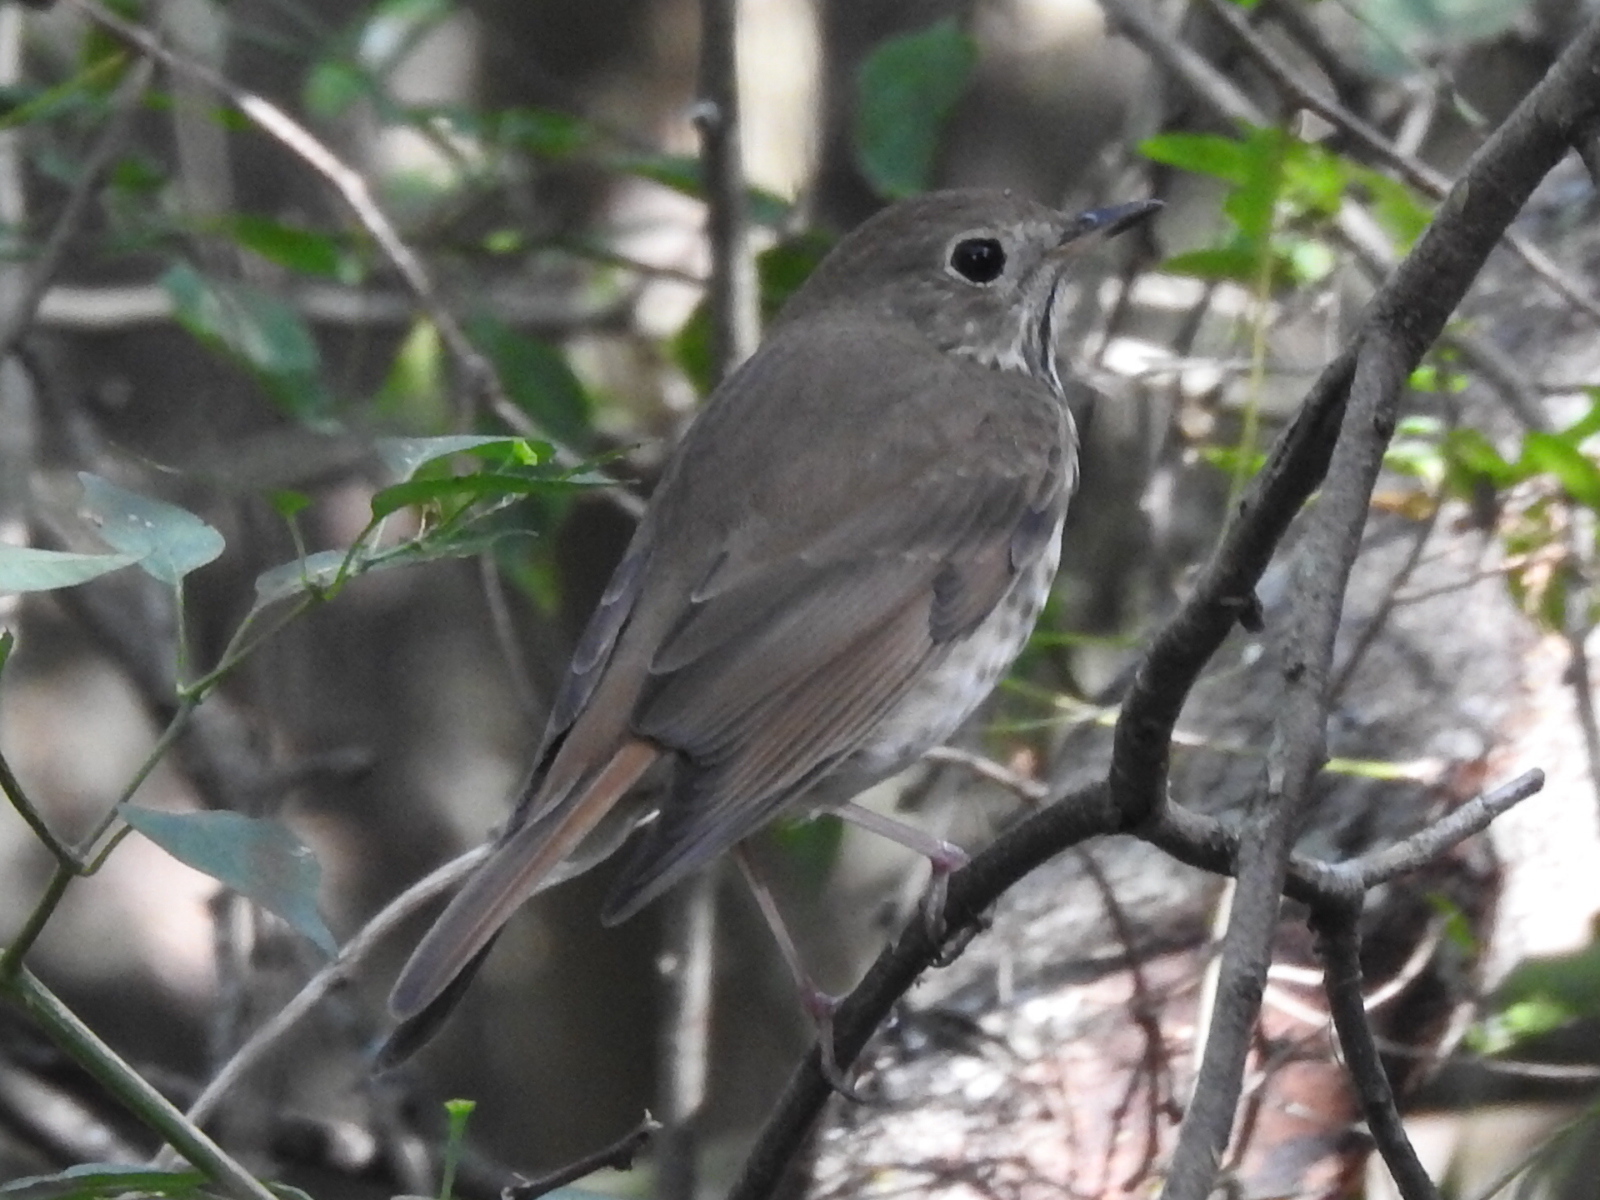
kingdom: Animalia
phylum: Chordata
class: Aves
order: Passeriformes
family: Turdidae
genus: Catharus
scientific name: Catharus guttatus
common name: Hermit thrush
